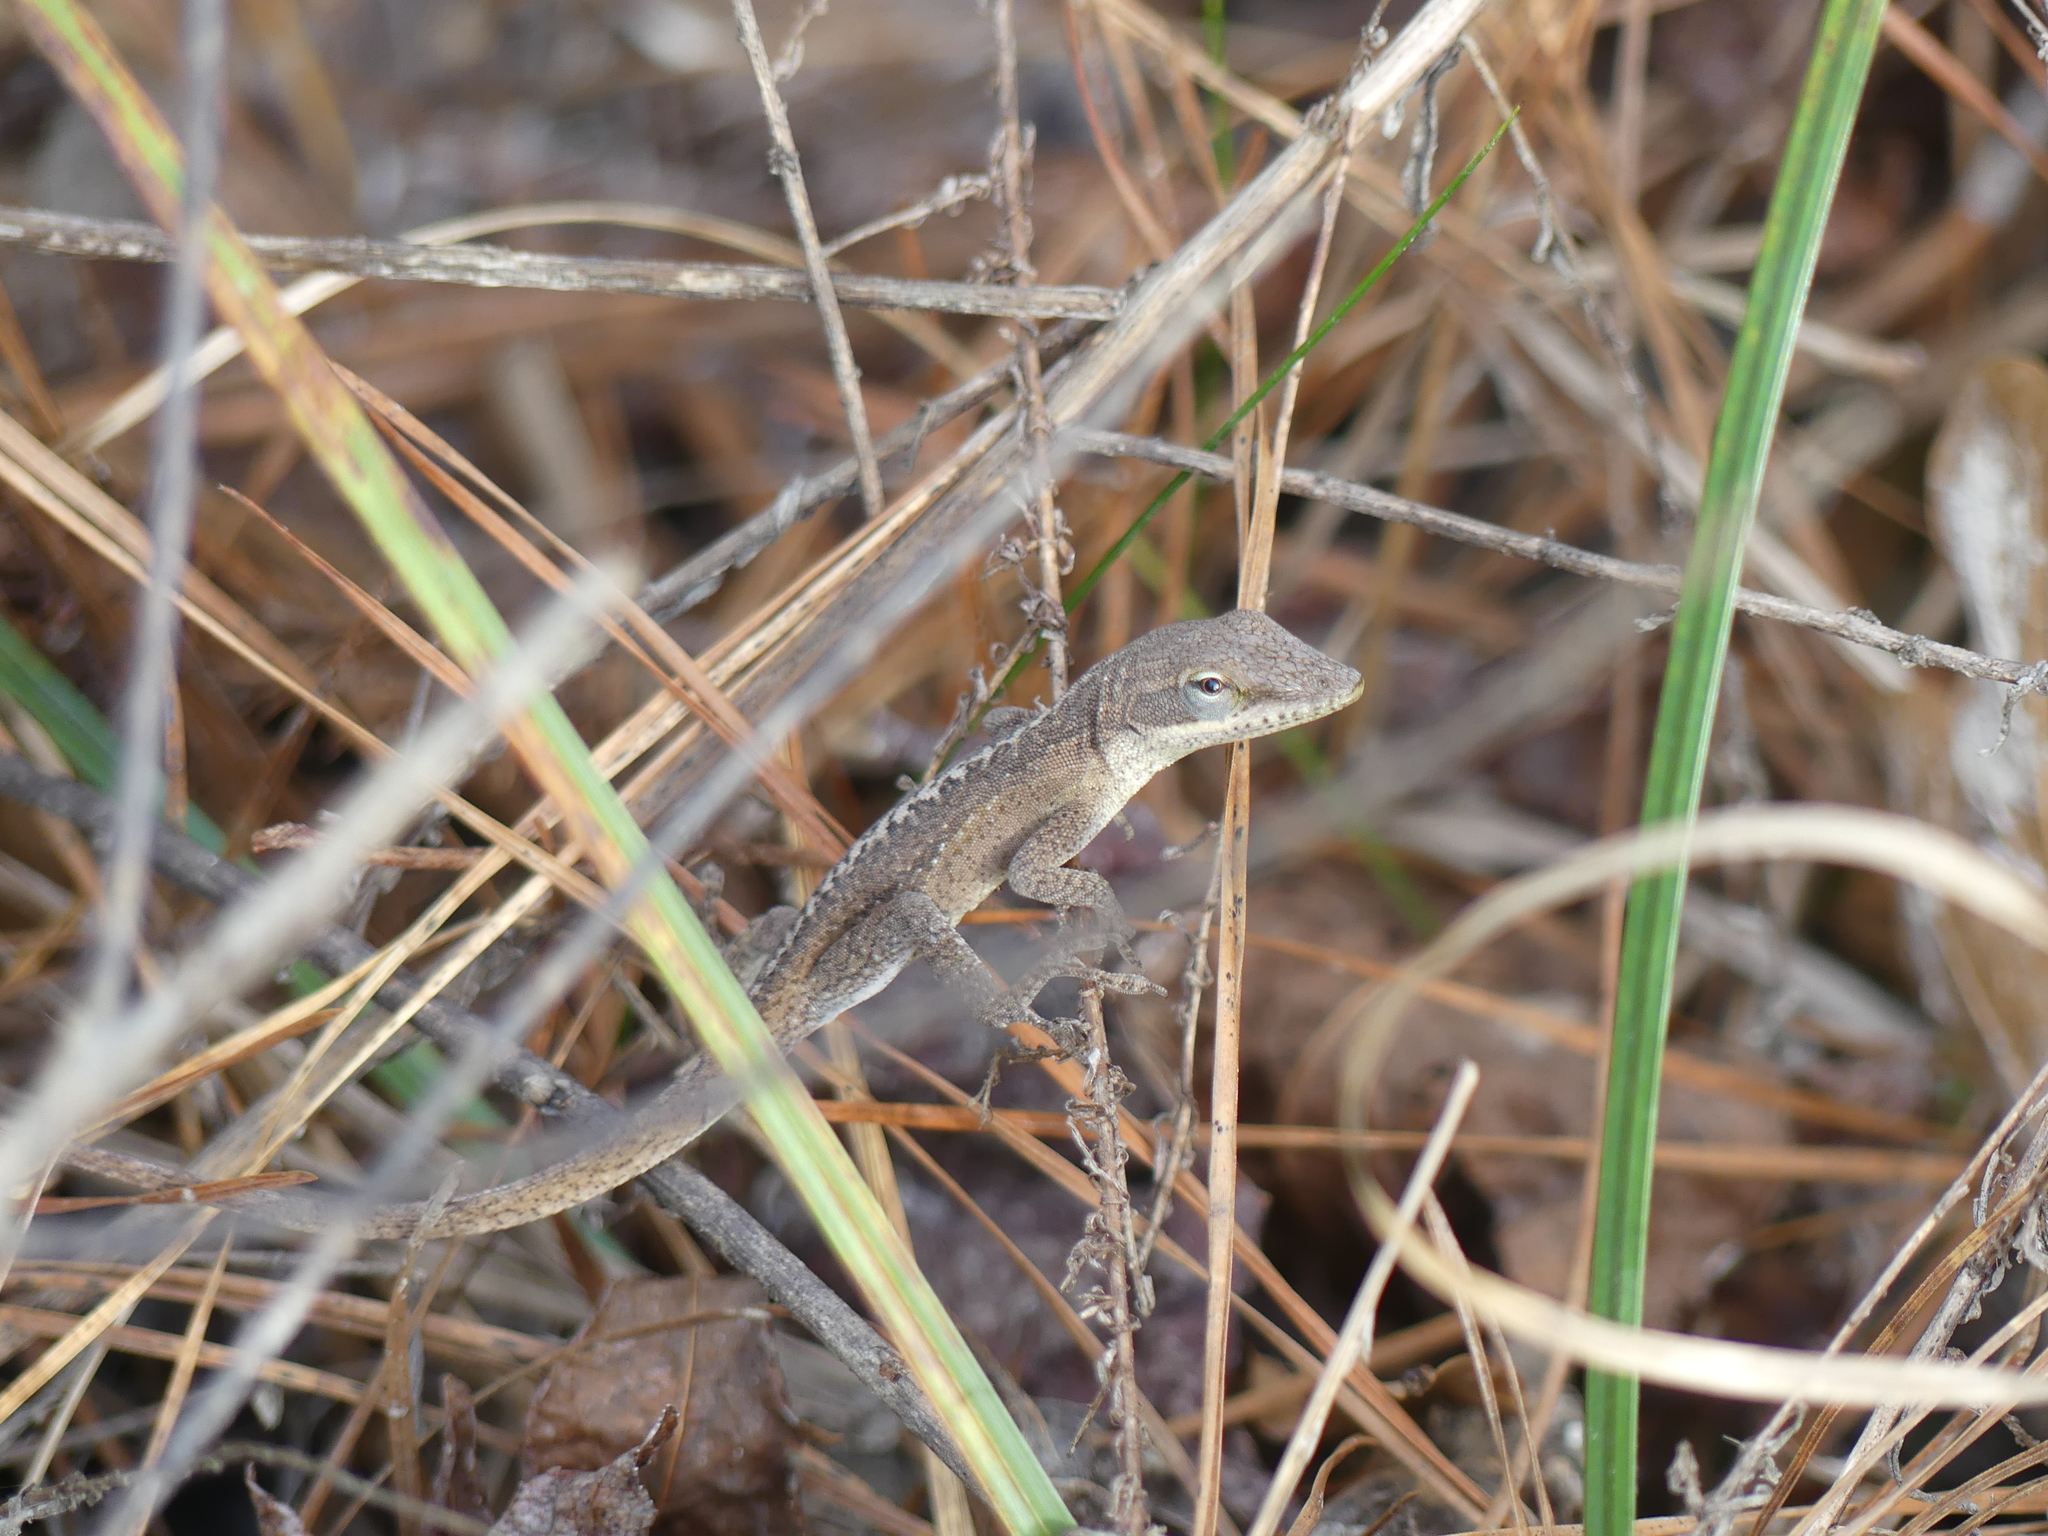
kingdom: Animalia
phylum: Chordata
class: Squamata
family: Dactyloidae
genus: Anolis
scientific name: Anolis carolinensis
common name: Green anole
